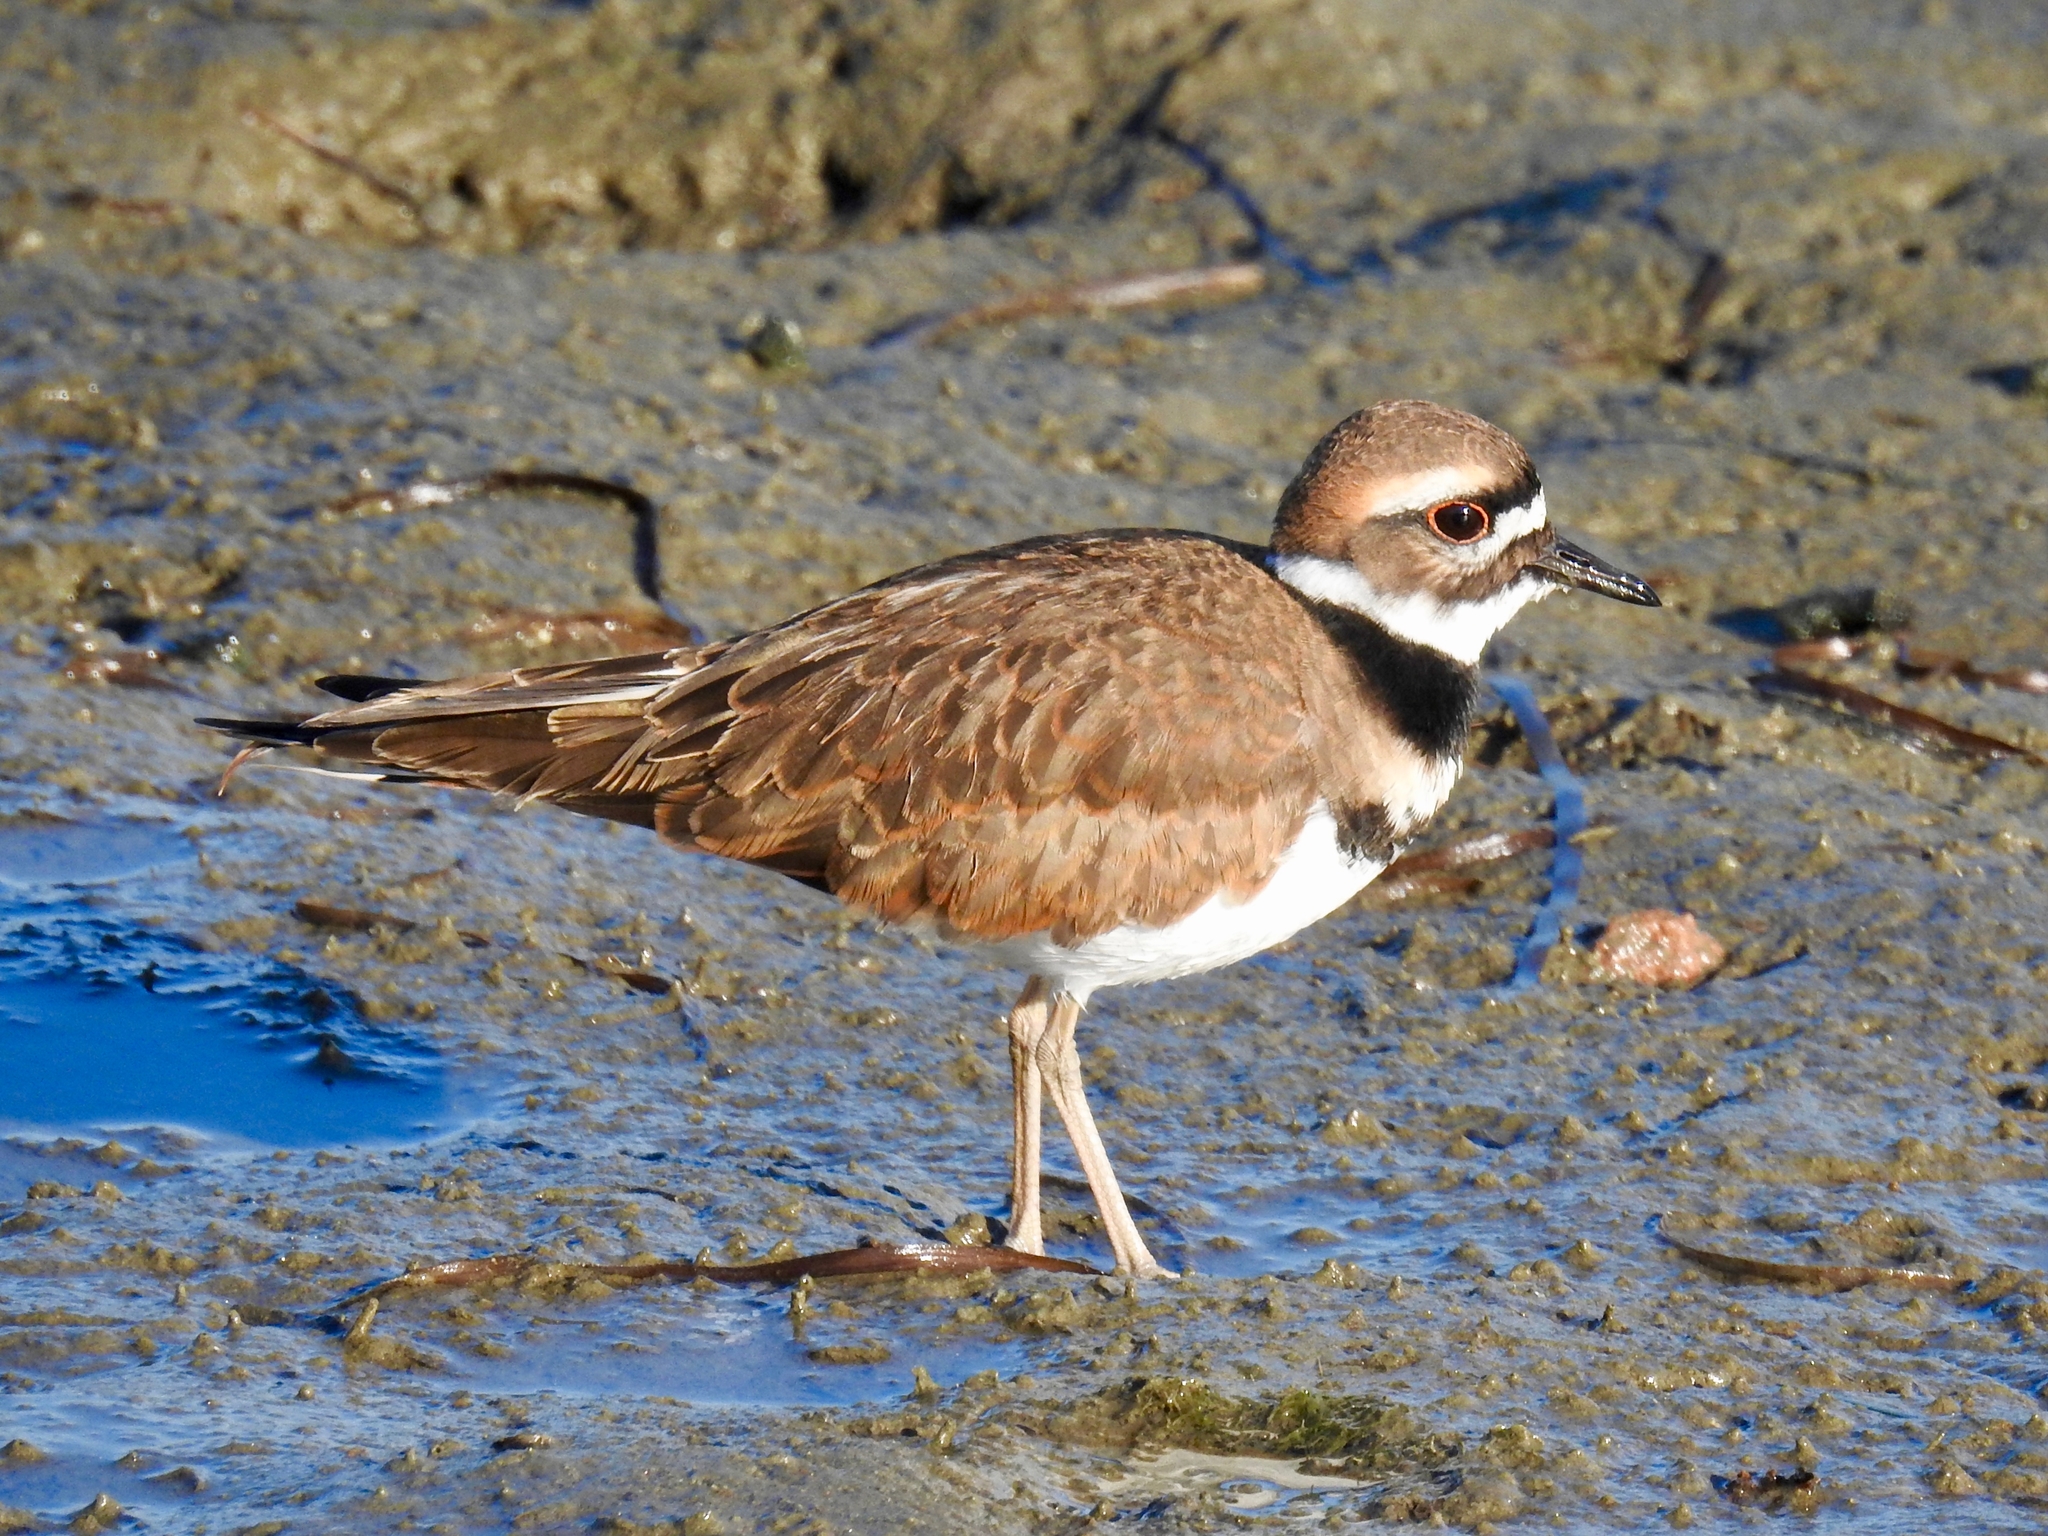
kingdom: Animalia
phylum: Chordata
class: Aves
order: Charadriiformes
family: Charadriidae
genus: Charadrius
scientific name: Charadrius vociferus
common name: Killdeer
